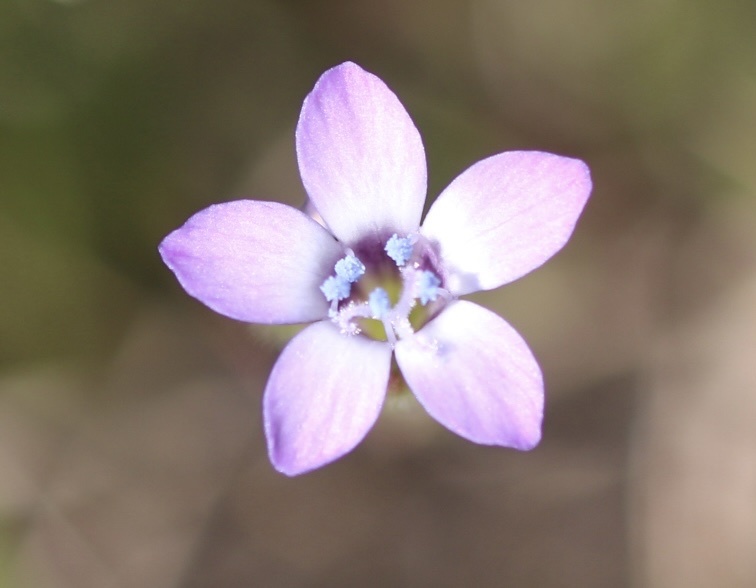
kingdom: Plantae
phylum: Tracheophyta
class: Magnoliopsida
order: Ericales
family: Polemoniaceae
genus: Gilia
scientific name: Gilia clivorum
